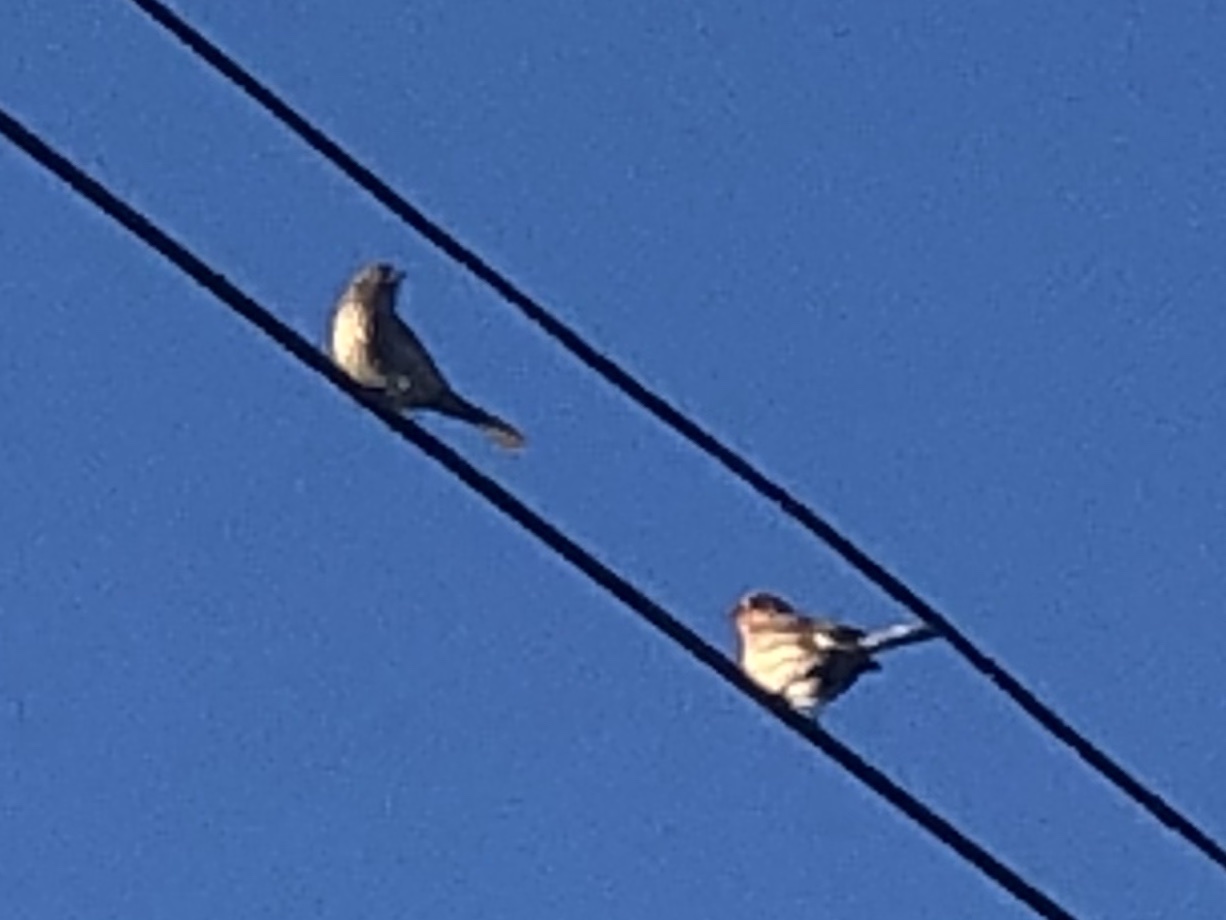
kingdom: Animalia
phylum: Chordata
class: Aves
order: Passeriformes
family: Fringillidae
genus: Haemorhous
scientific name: Haemorhous mexicanus
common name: House finch
